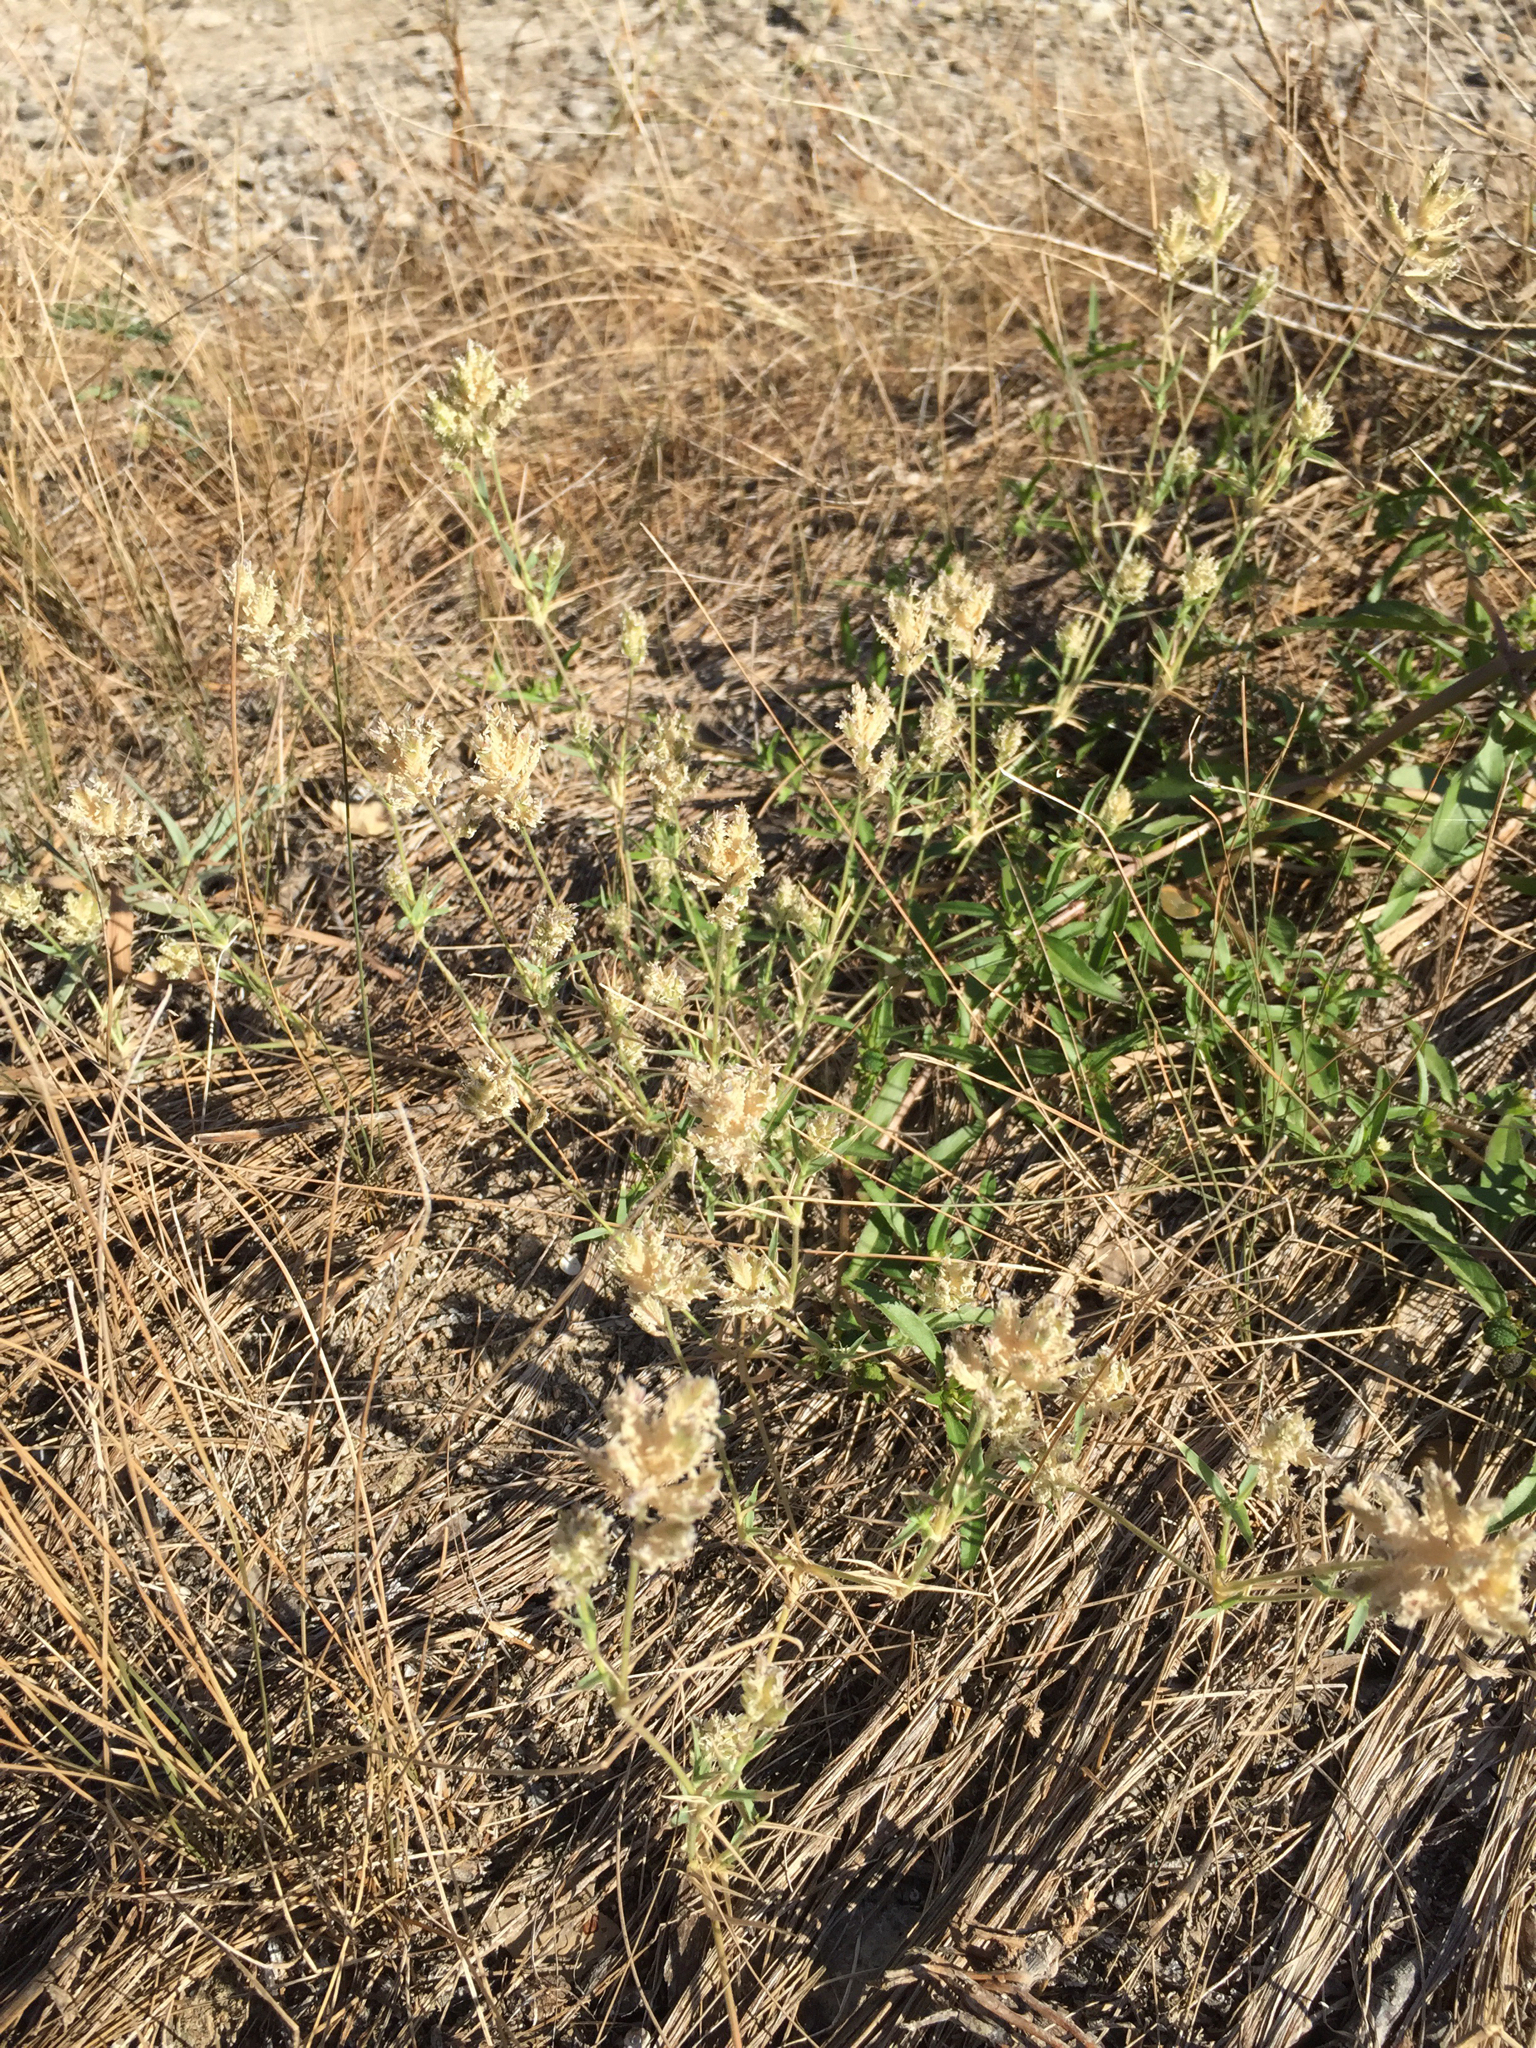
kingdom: Plantae
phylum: Tracheophyta
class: Liliopsida
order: Poales
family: Poaceae
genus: Eragrostis
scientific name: Eragrostis reptans
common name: Creeping love grass
